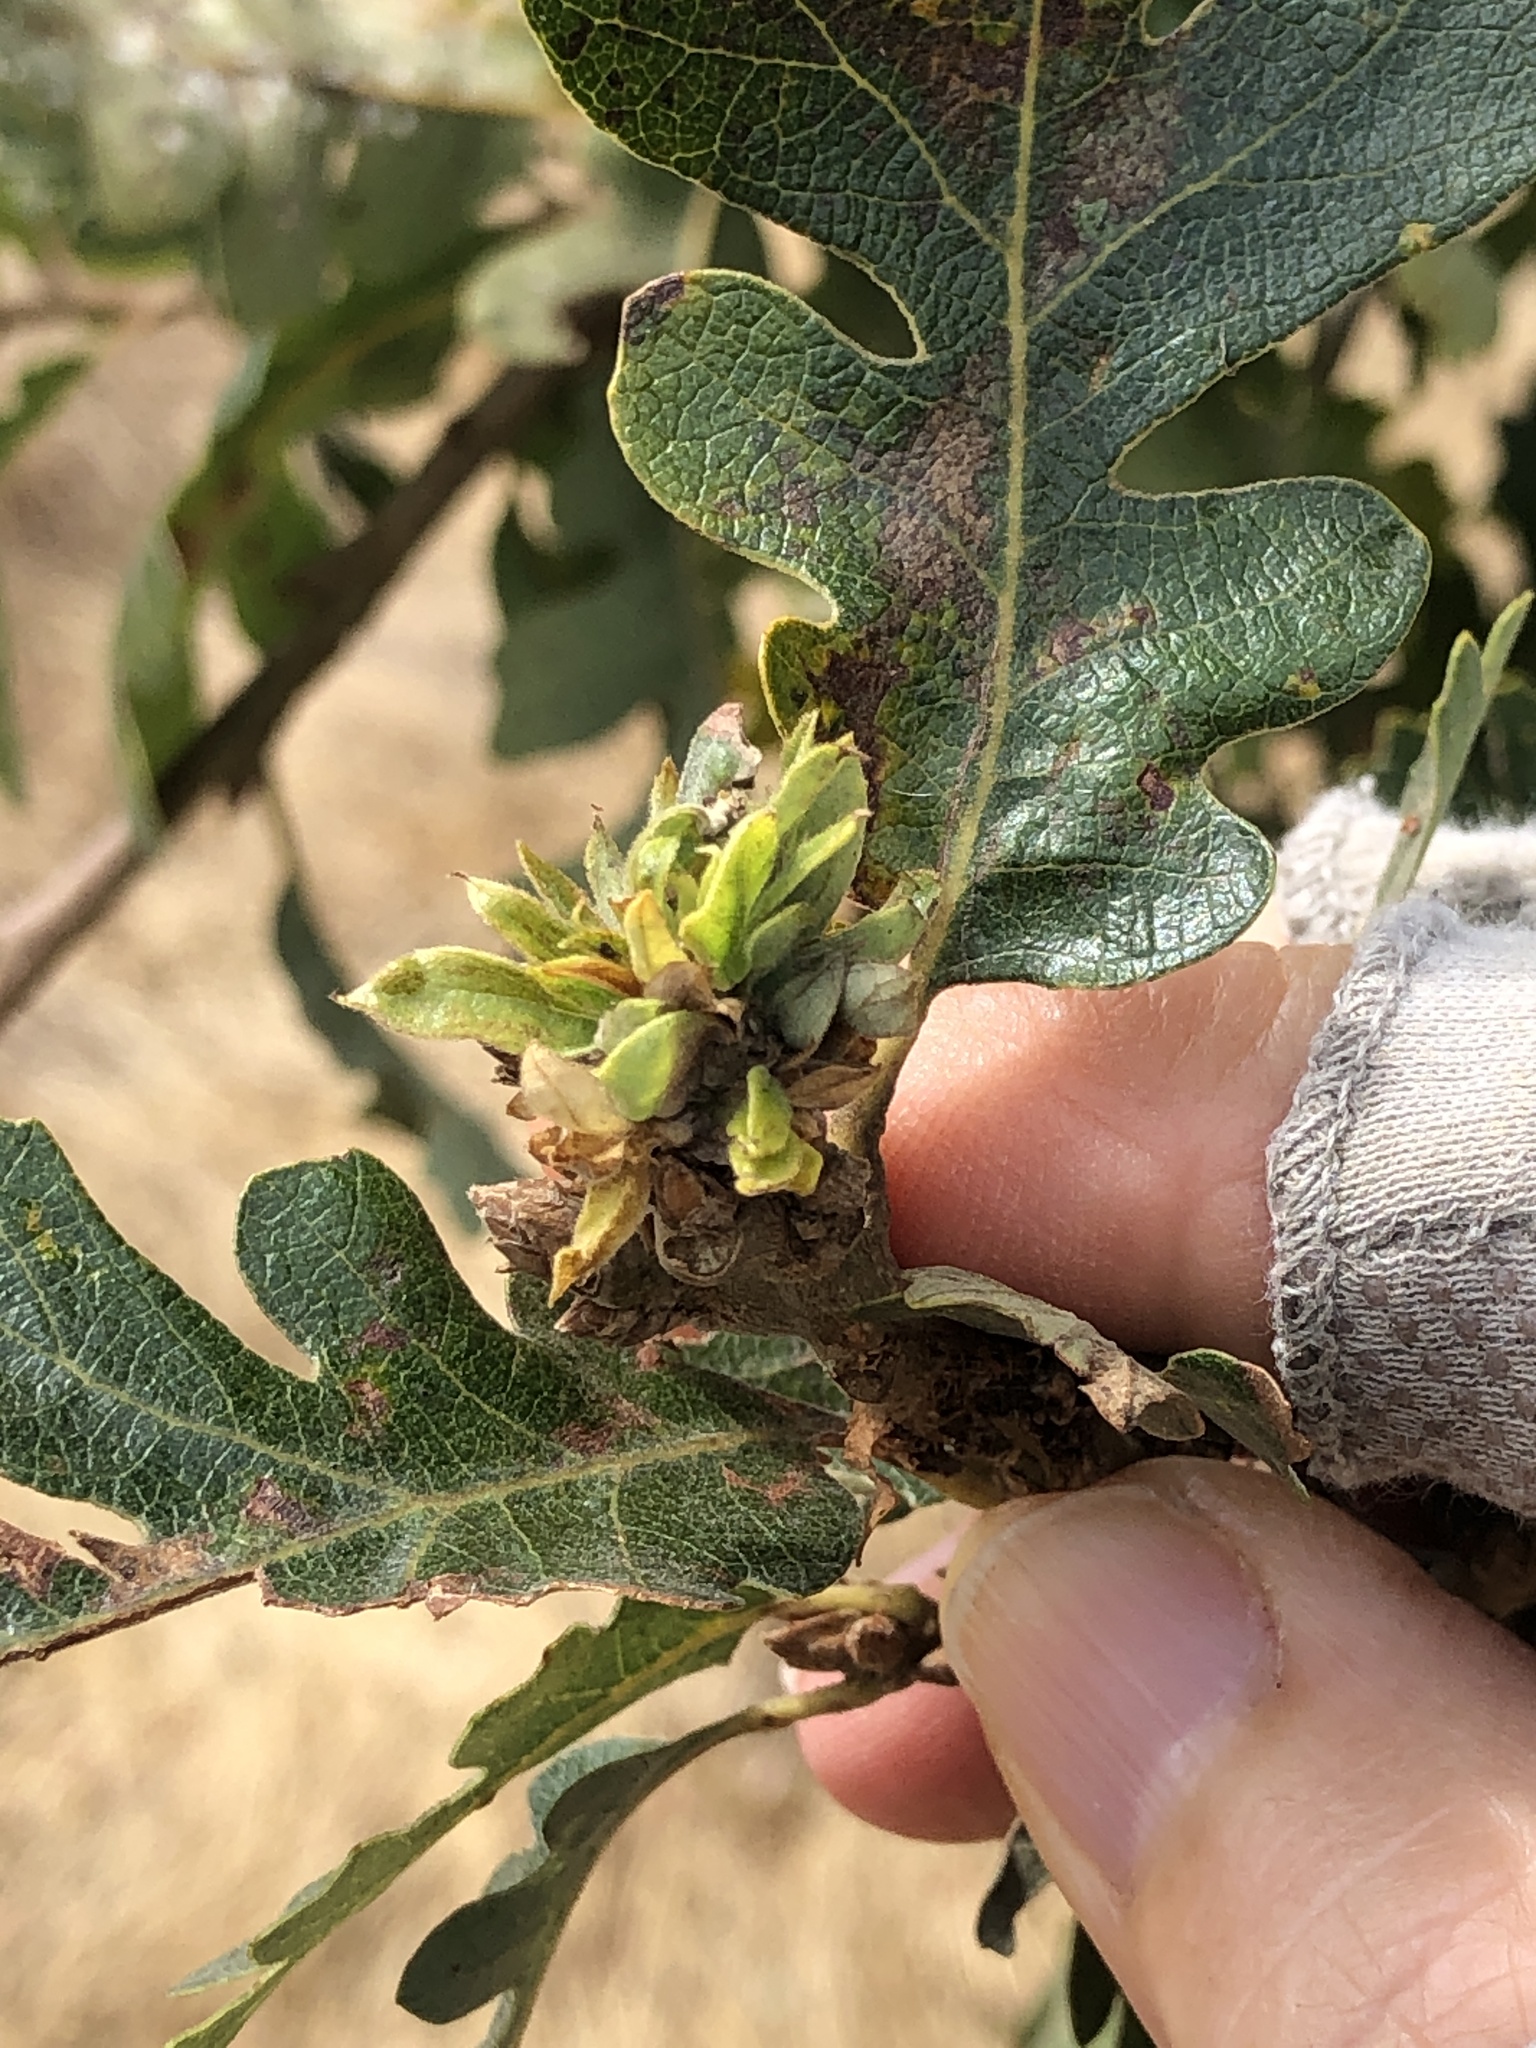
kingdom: Animalia
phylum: Arthropoda
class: Insecta
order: Hymenoptera
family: Cynipidae
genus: Andricus
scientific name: Andricus
